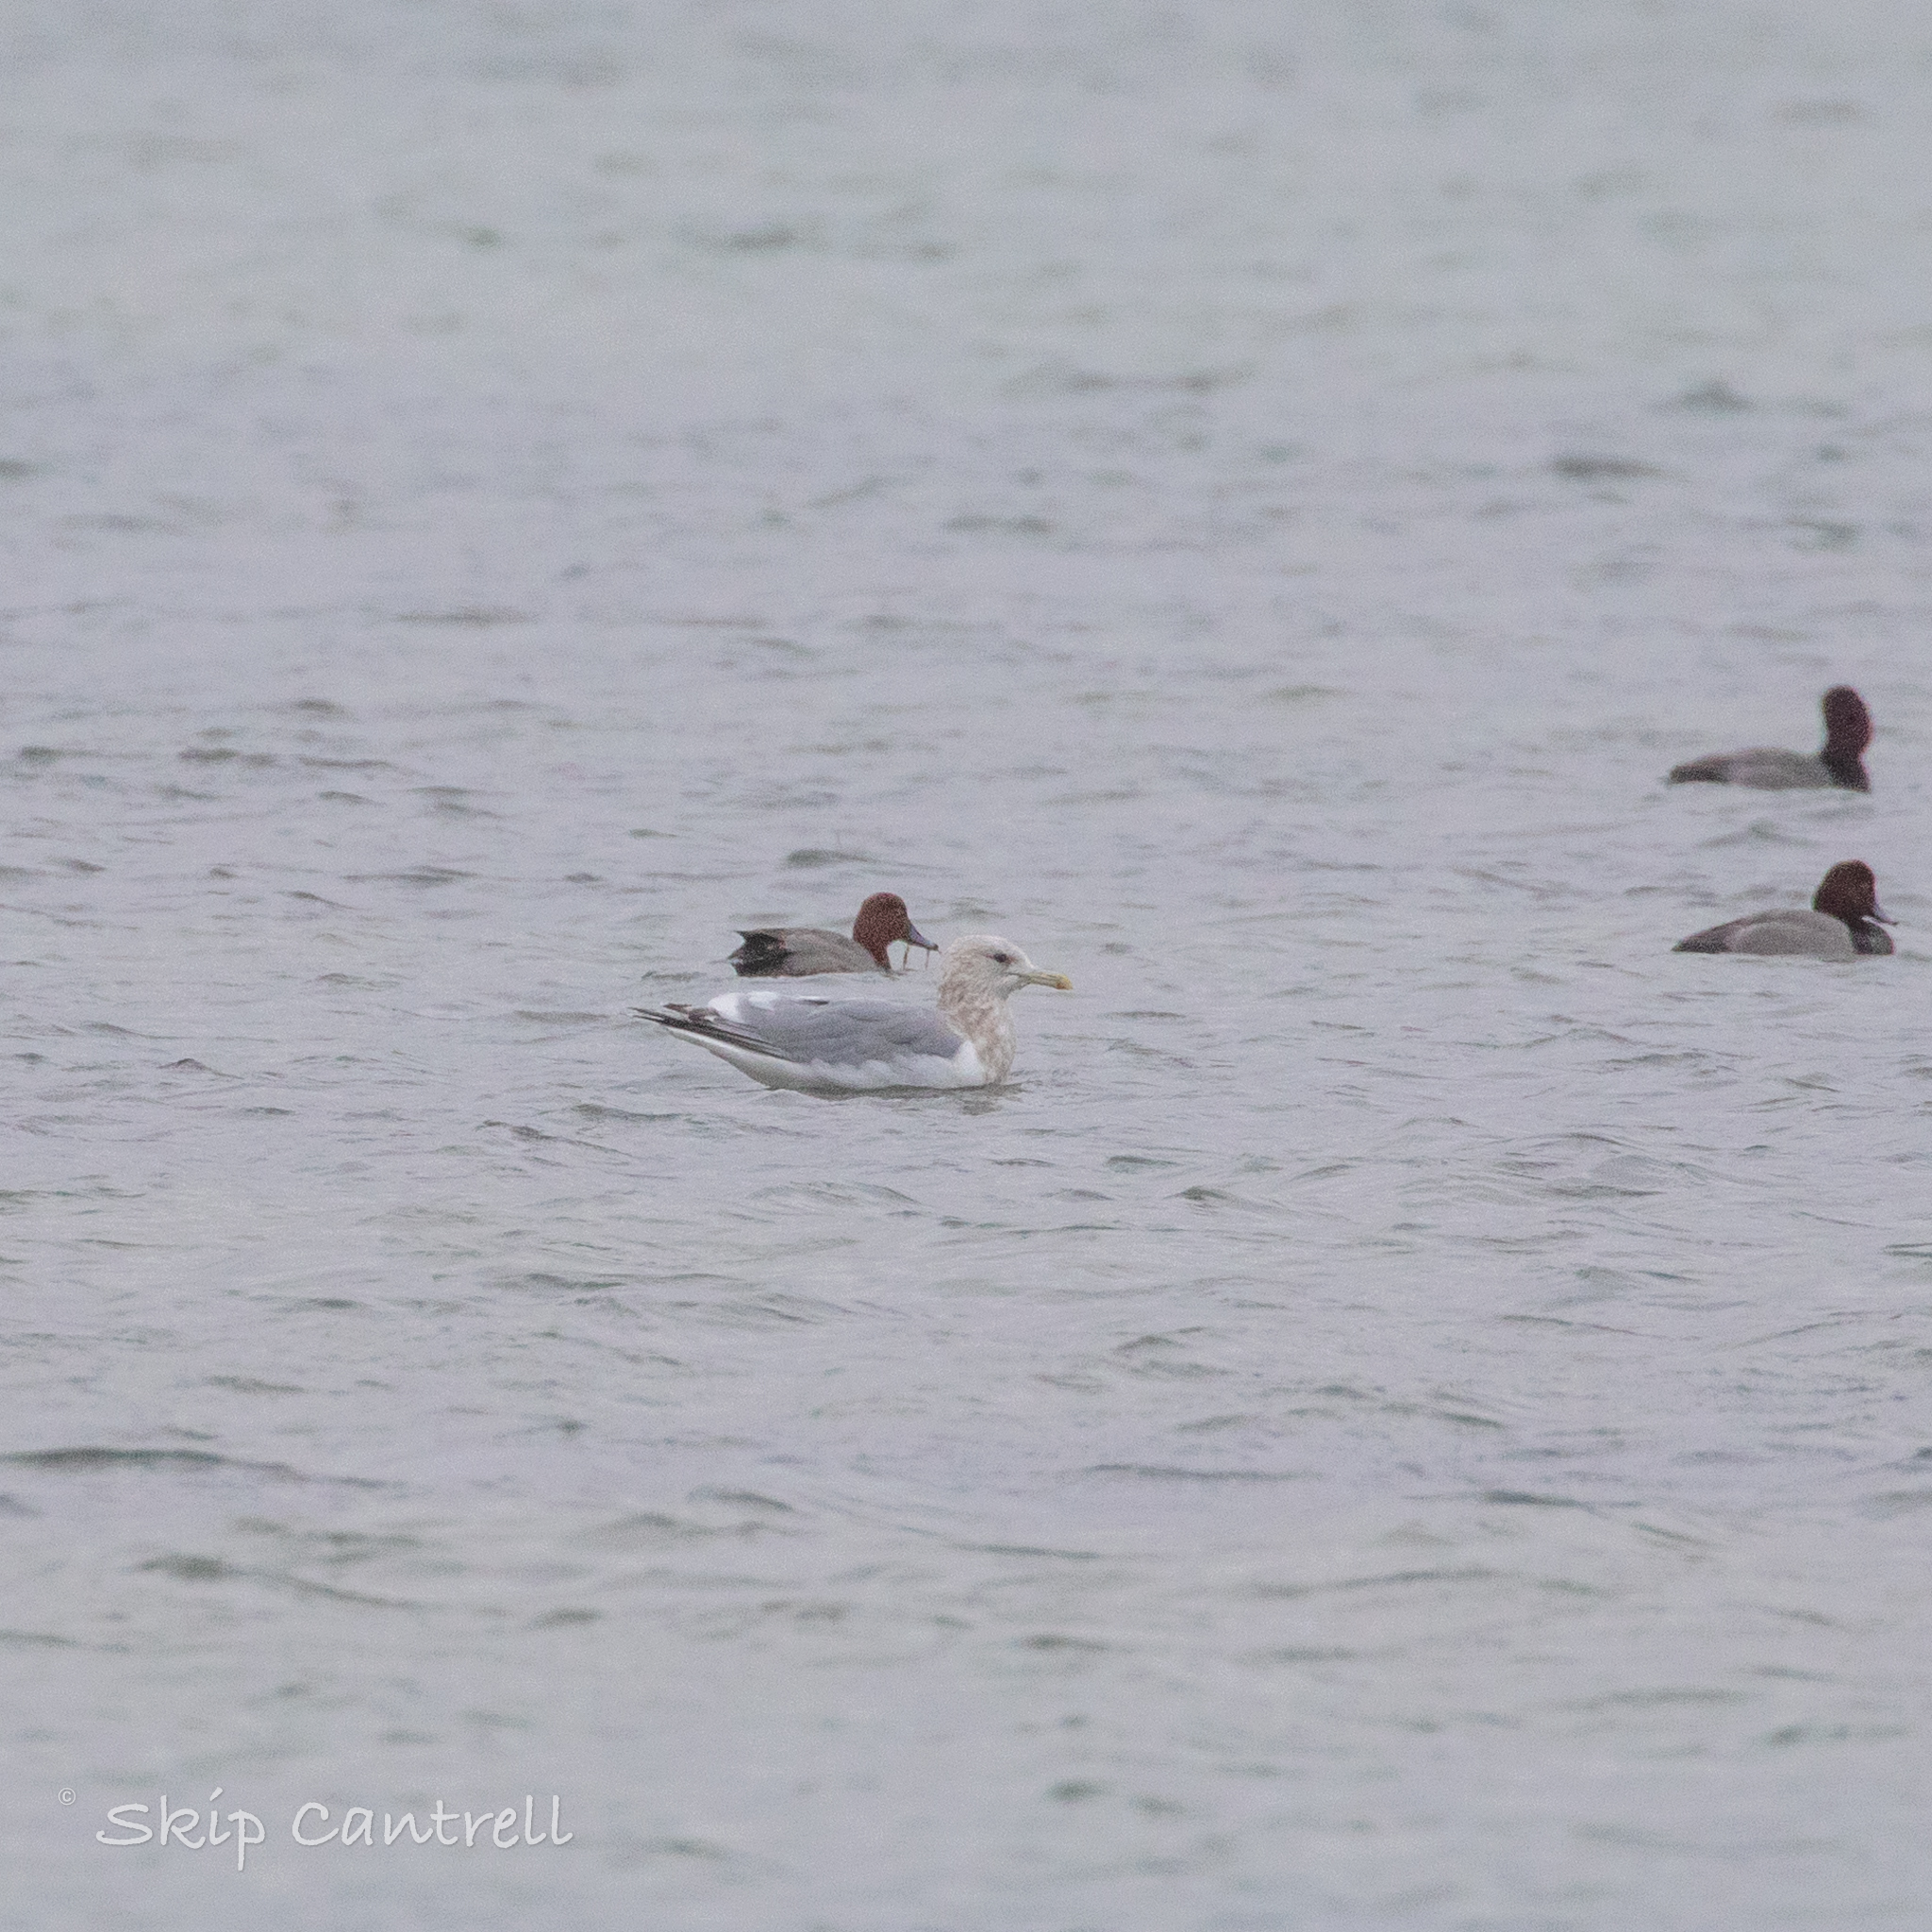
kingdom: Animalia
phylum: Chordata
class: Aves
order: Charadriiformes
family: Laridae
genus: Larus
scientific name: Larus glaucoides
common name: Iceland gull
